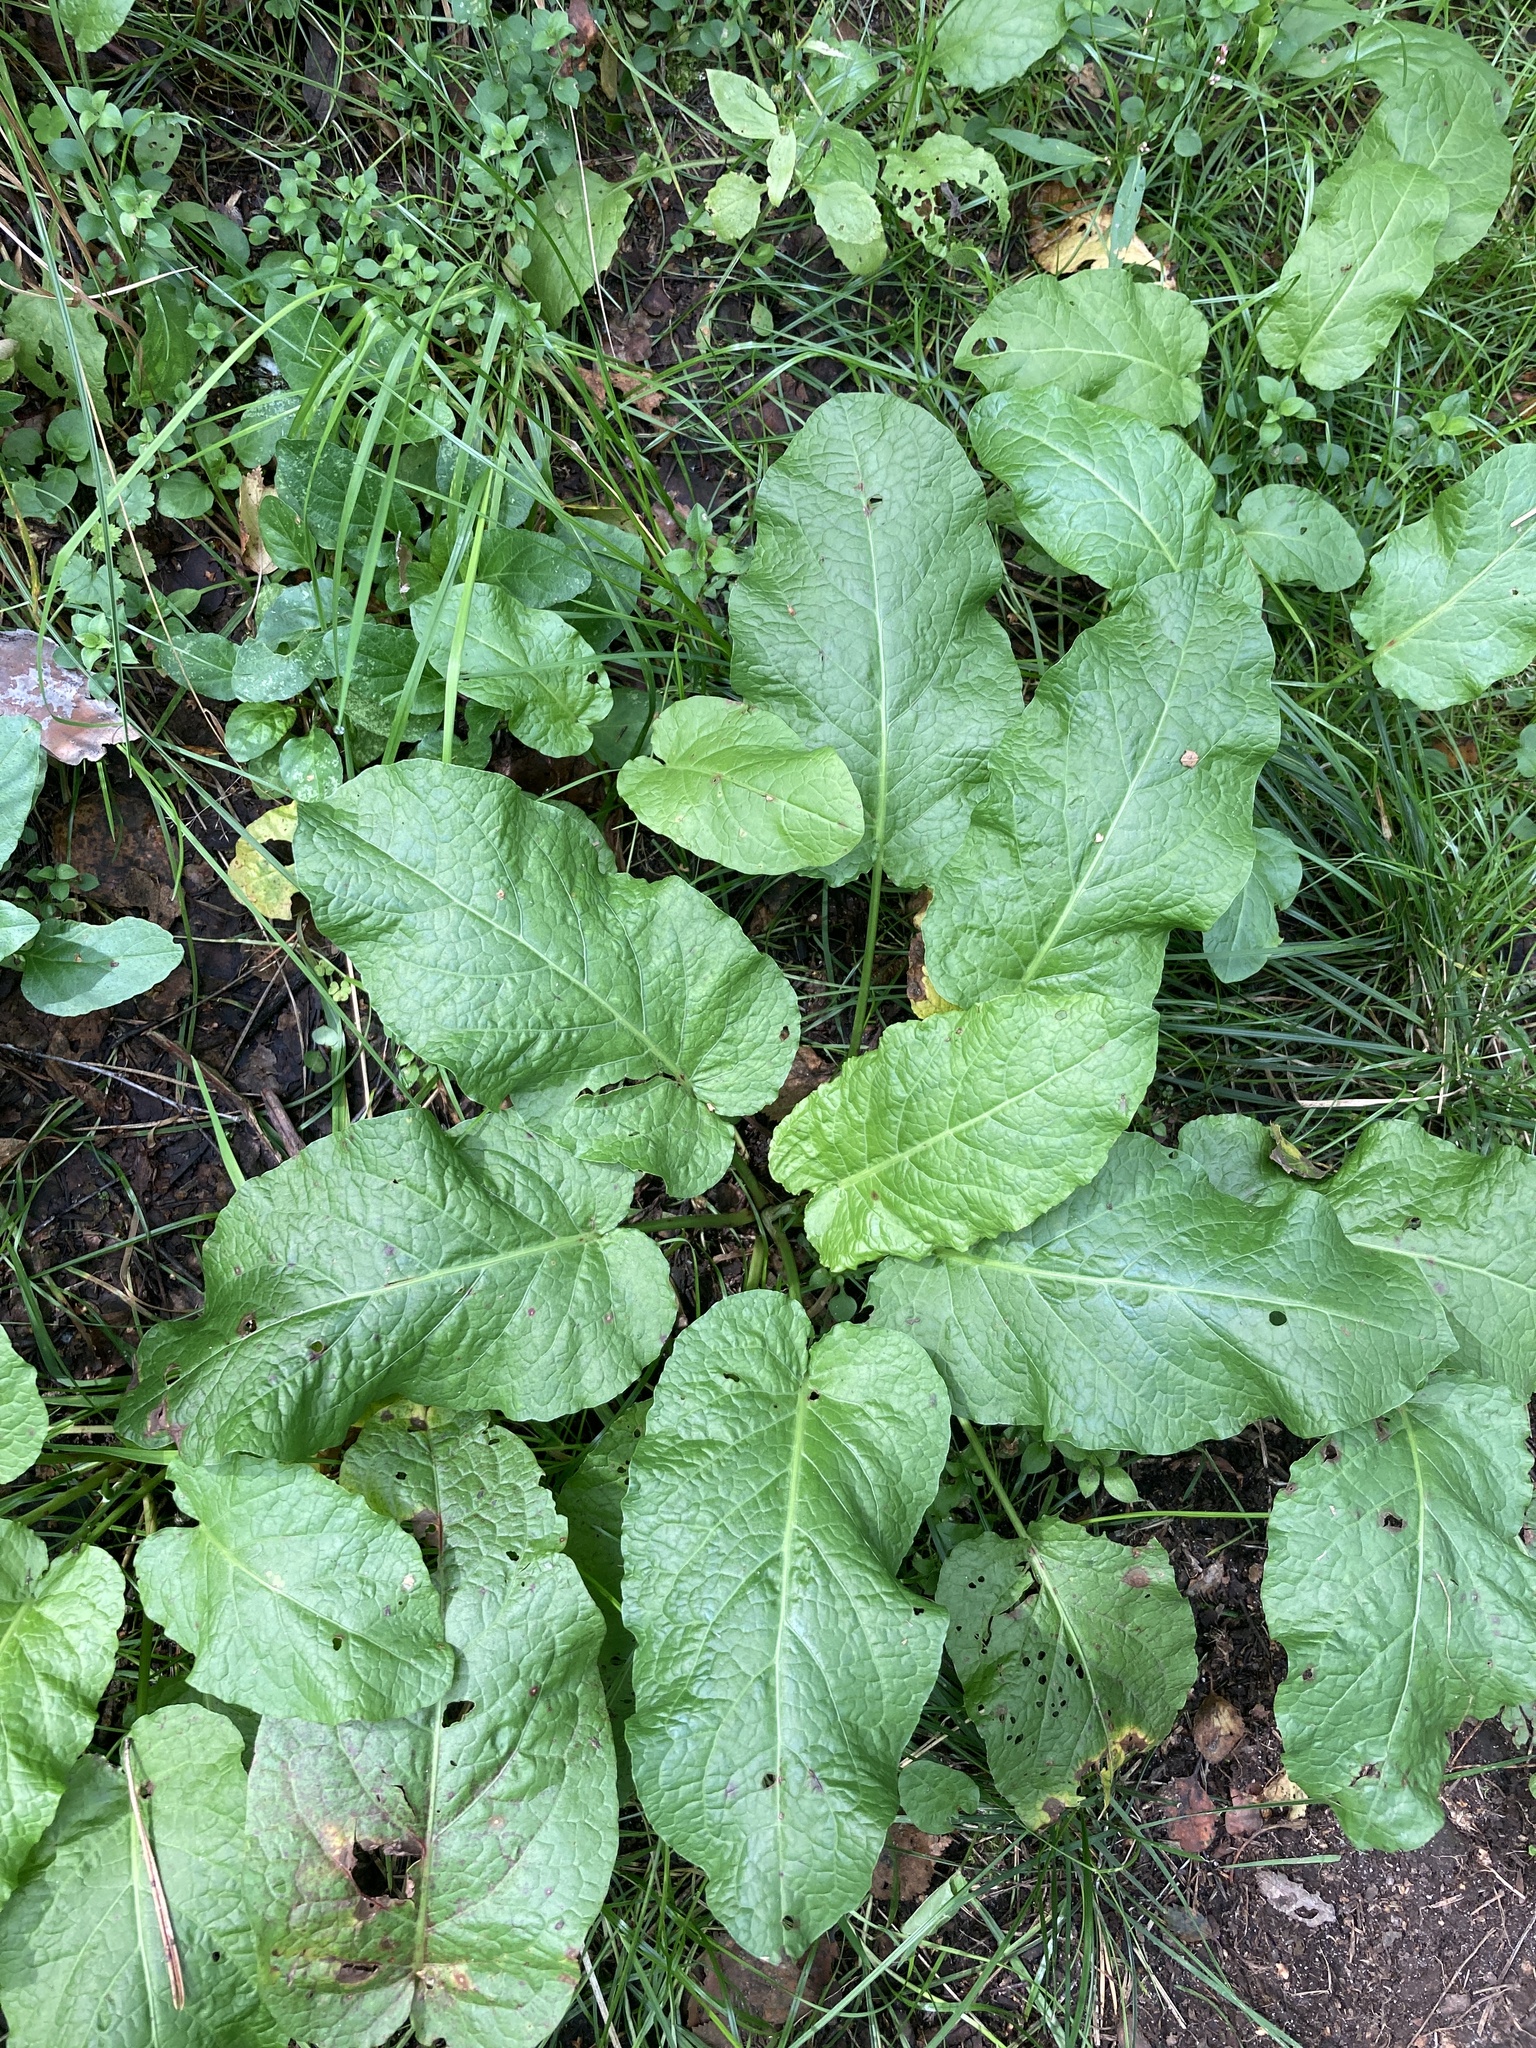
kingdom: Plantae
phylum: Tracheophyta
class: Magnoliopsida
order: Caryophyllales
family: Polygonaceae
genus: Rumex
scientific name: Rumex obtusifolius
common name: Bitter dock
